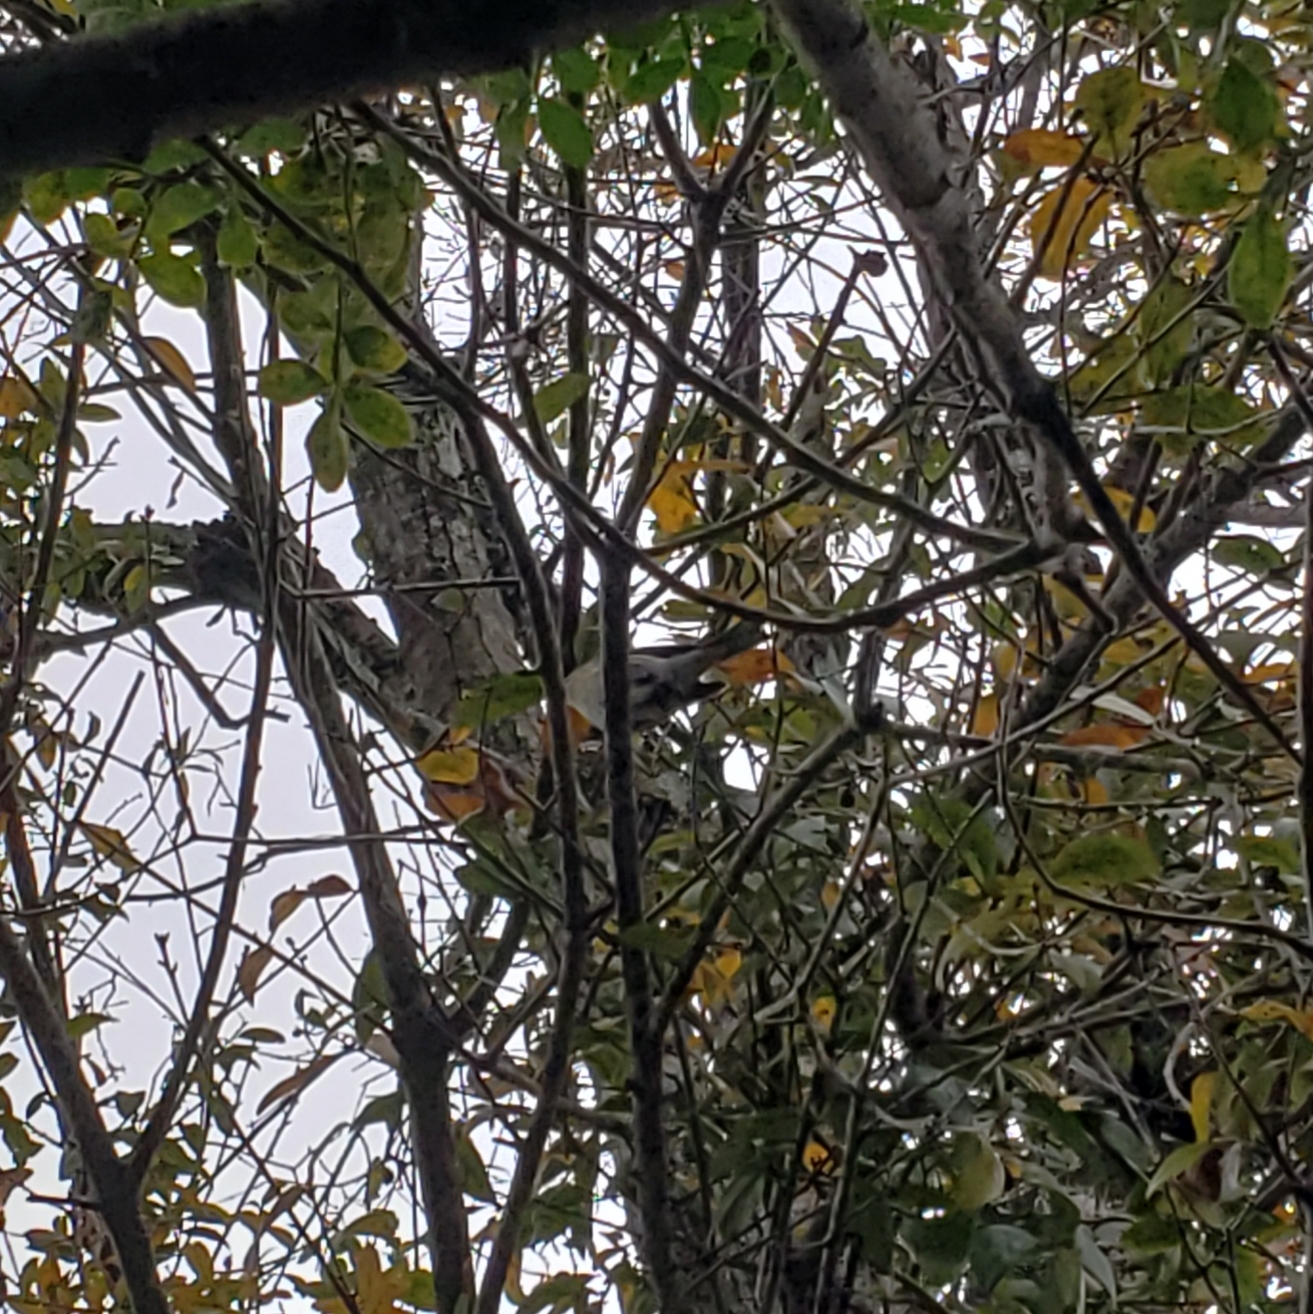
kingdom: Animalia
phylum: Chordata
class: Aves
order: Passeriformes
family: Parulidae
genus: Setophaga
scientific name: Setophaga coronata
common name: Myrtle warbler
